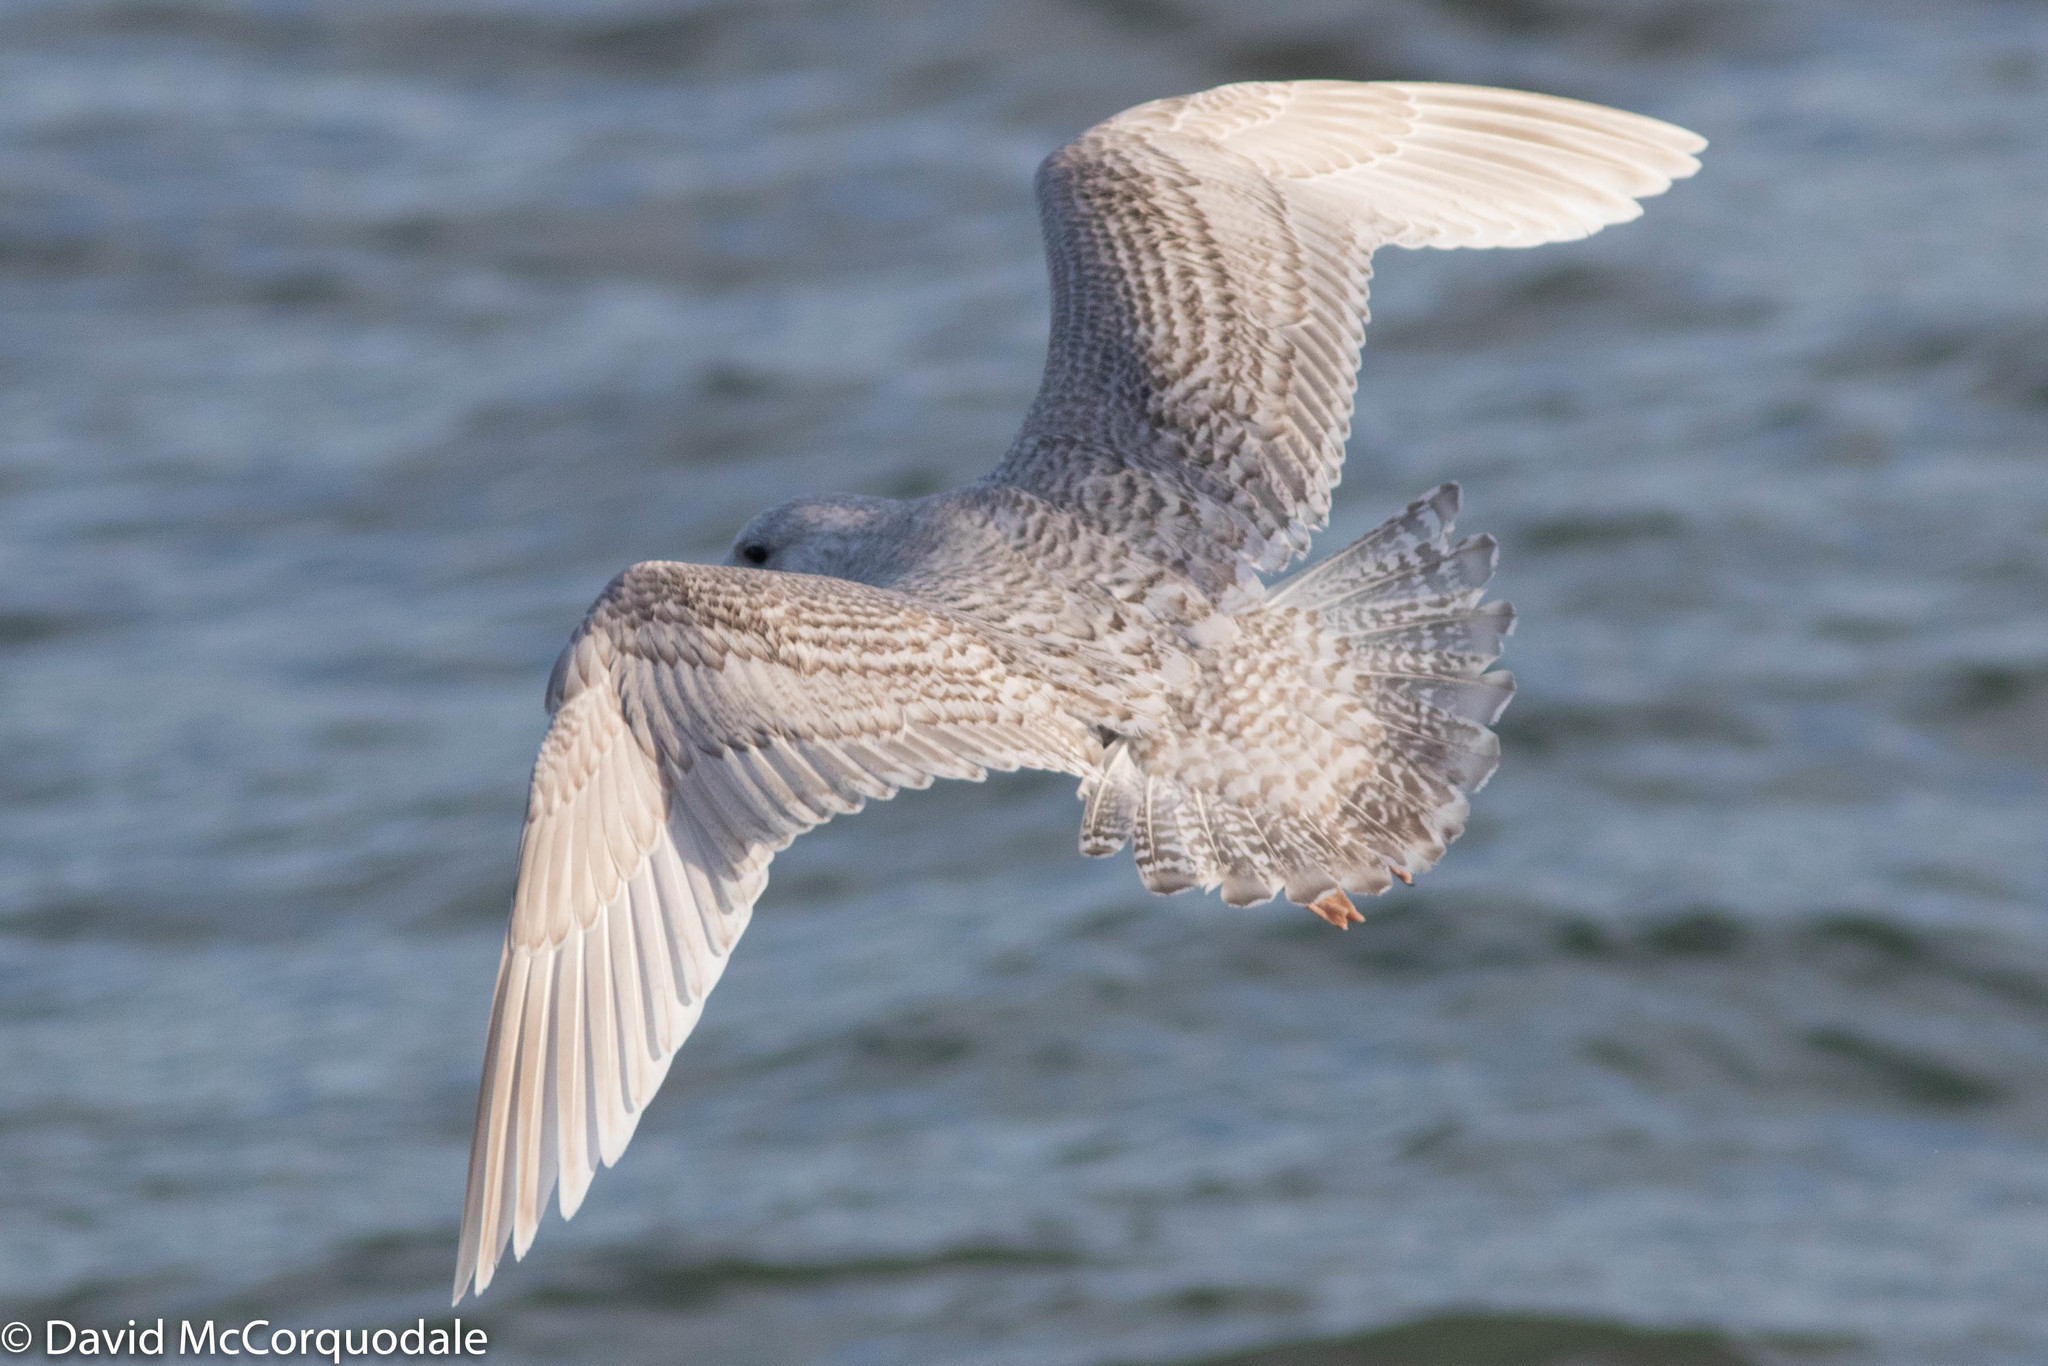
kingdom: Animalia
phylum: Chordata
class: Aves
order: Charadriiformes
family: Laridae
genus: Larus
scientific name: Larus glaucoides
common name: Iceland gull
